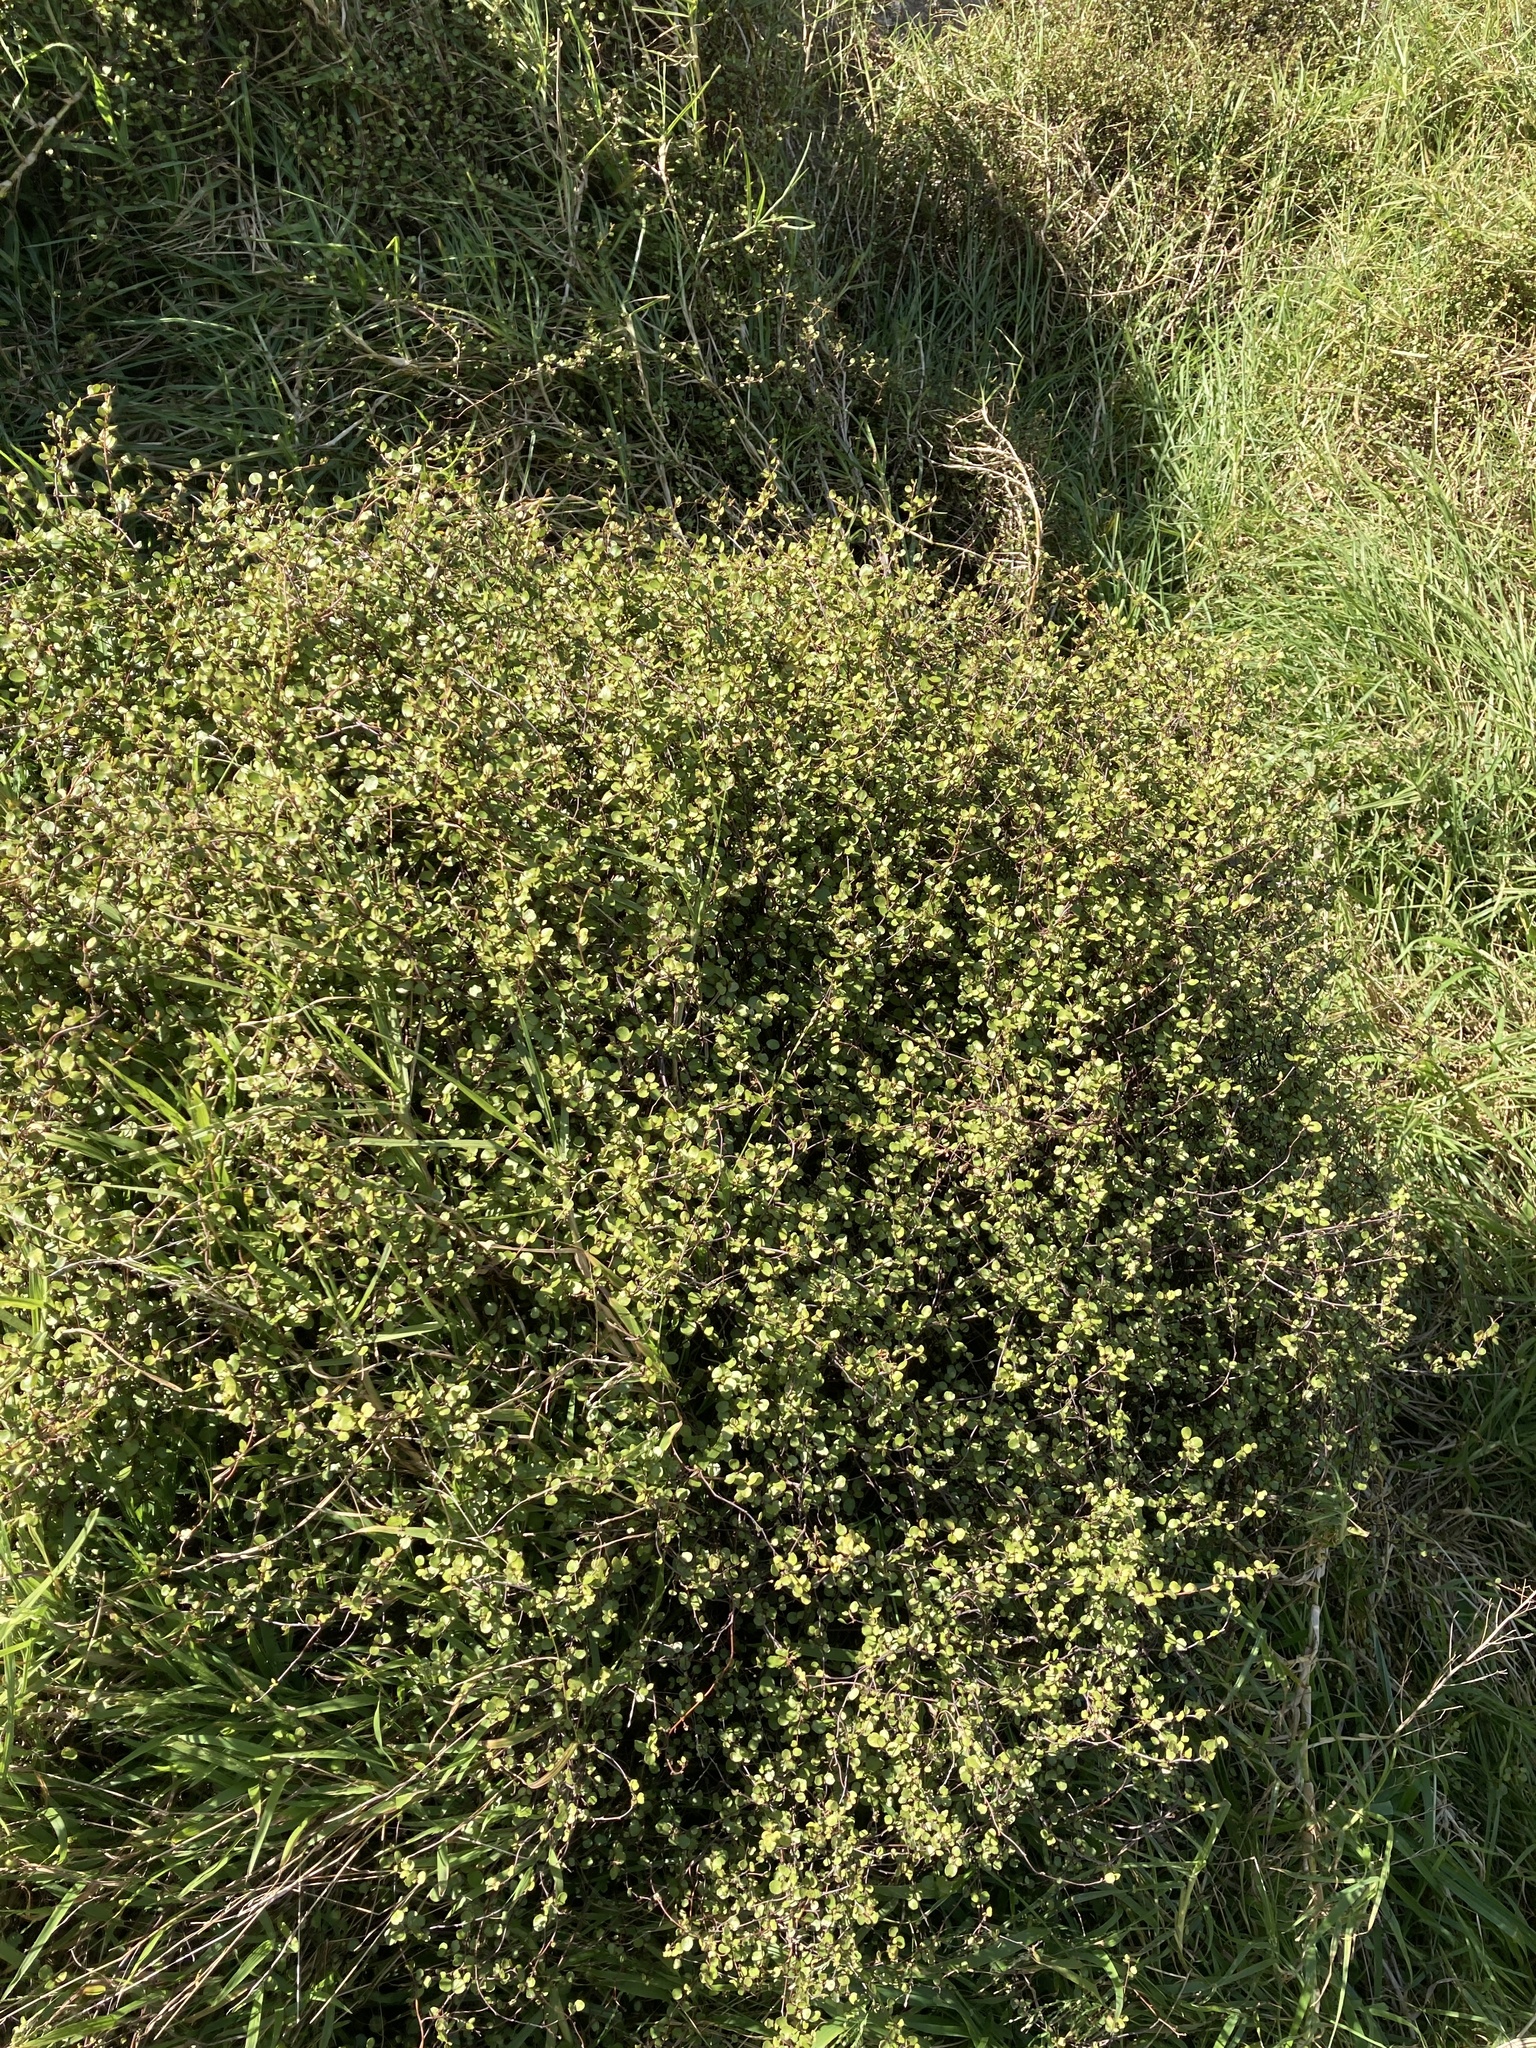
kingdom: Plantae
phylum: Tracheophyta
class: Magnoliopsida
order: Caryophyllales
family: Polygonaceae
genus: Muehlenbeckia
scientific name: Muehlenbeckia complexa
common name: Wireplant
